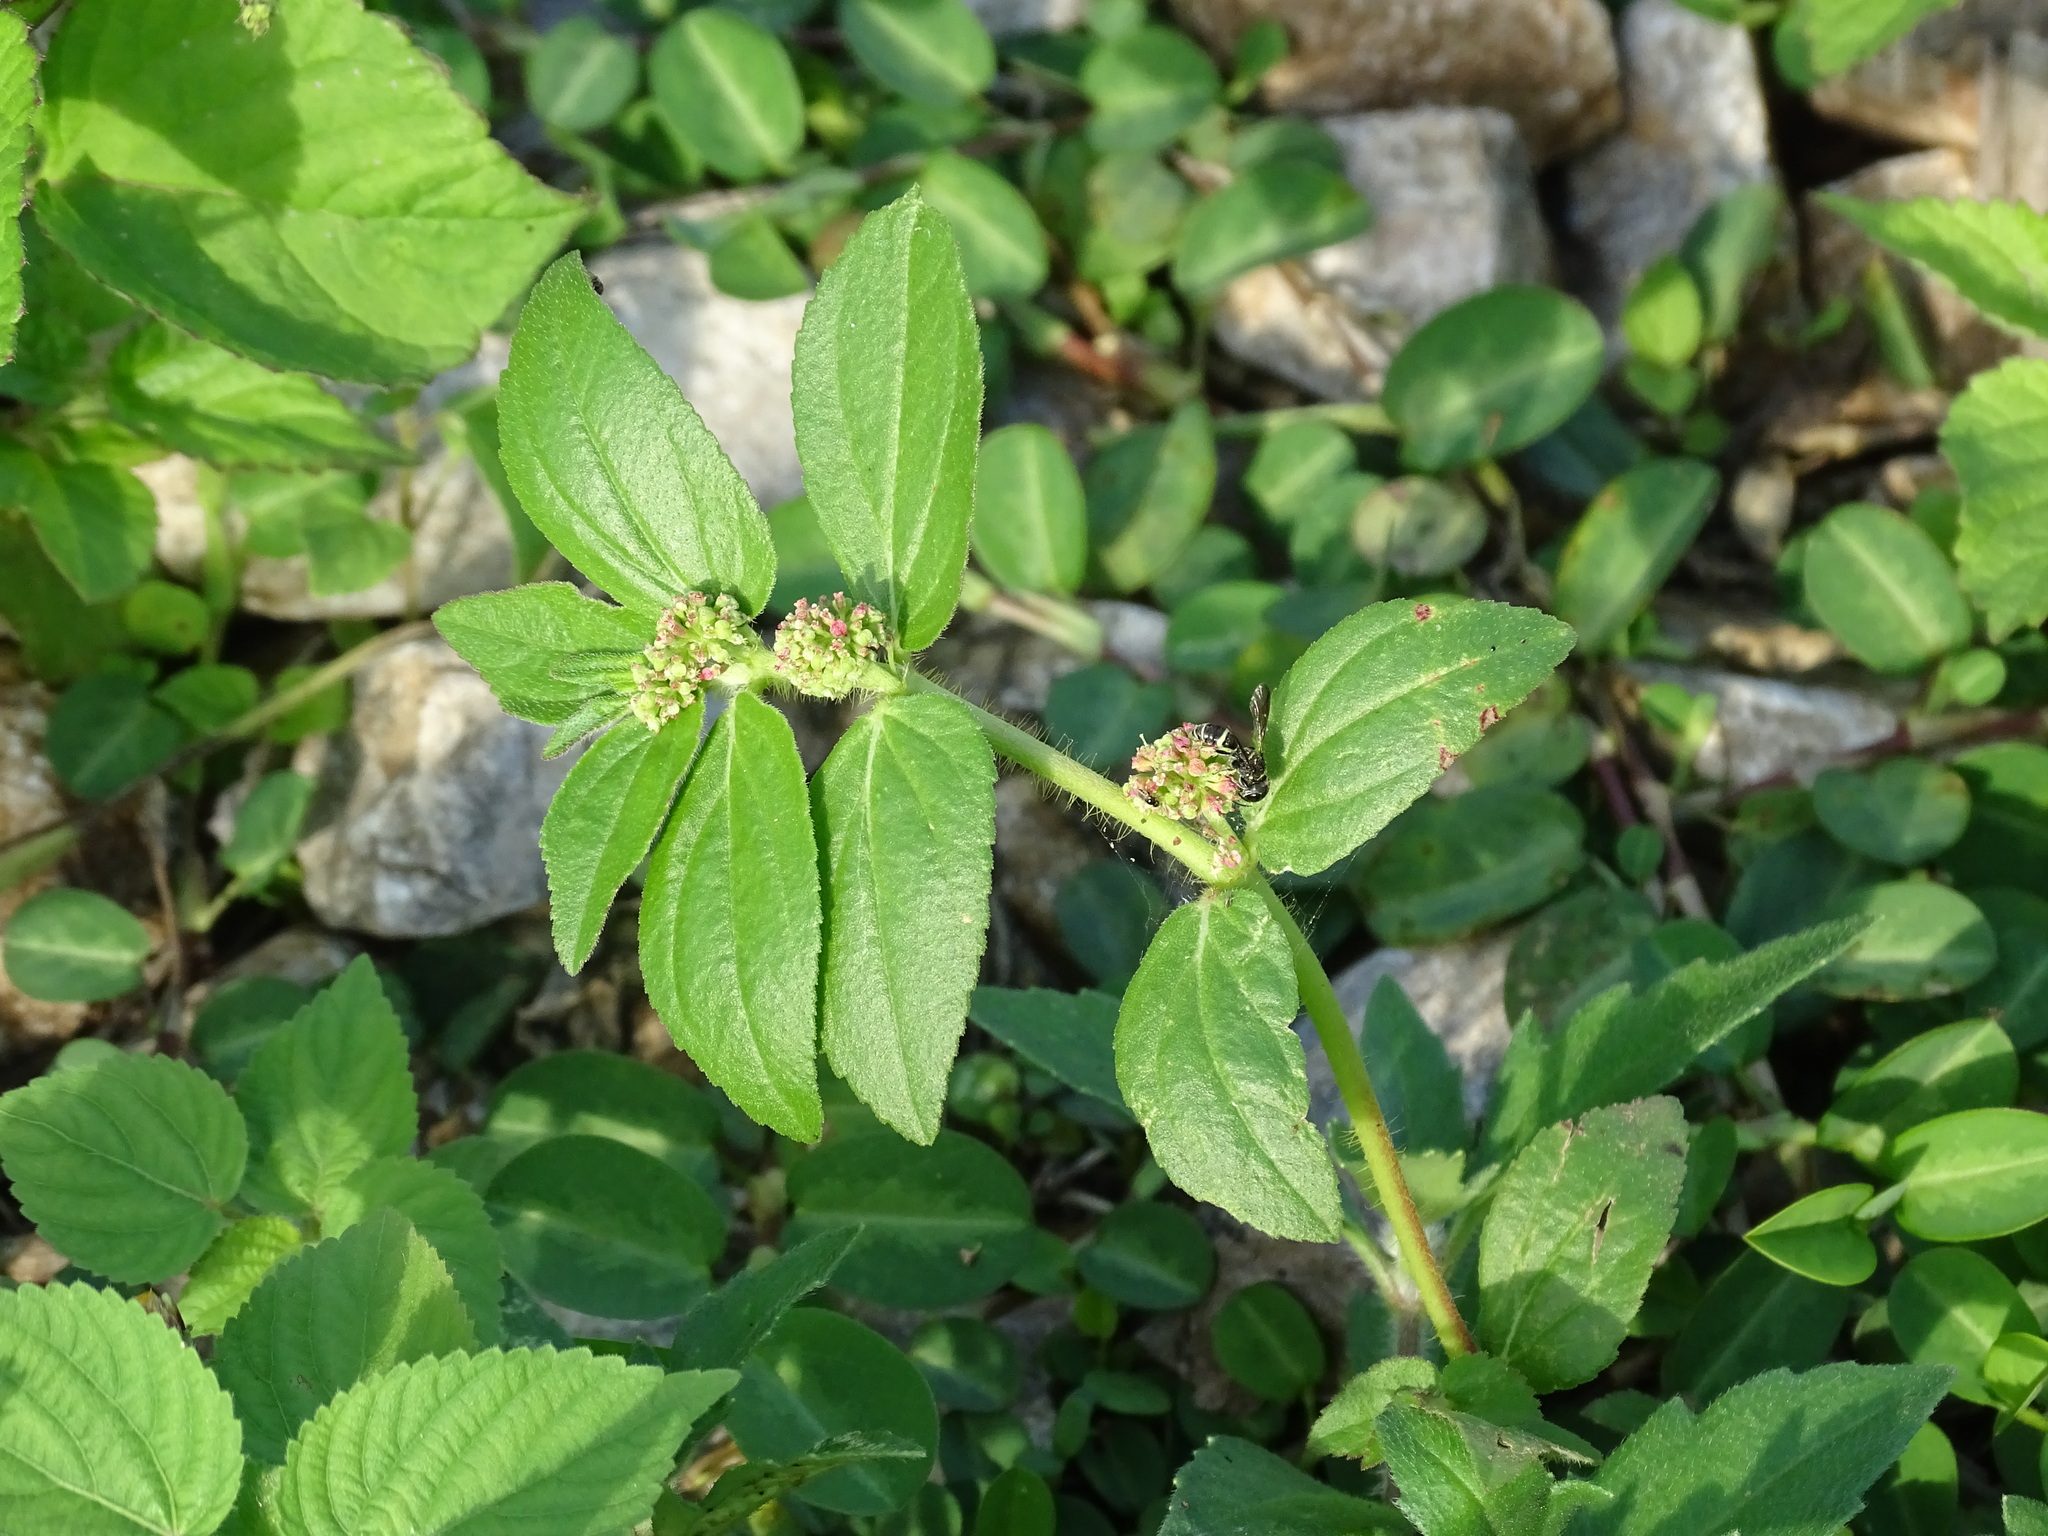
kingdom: Plantae
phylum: Tracheophyta
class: Magnoliopsida
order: Malpighiales
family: Euphorbiaceae
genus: Euphorbia
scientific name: Euphorbia hirta
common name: Pillpod sandmat
